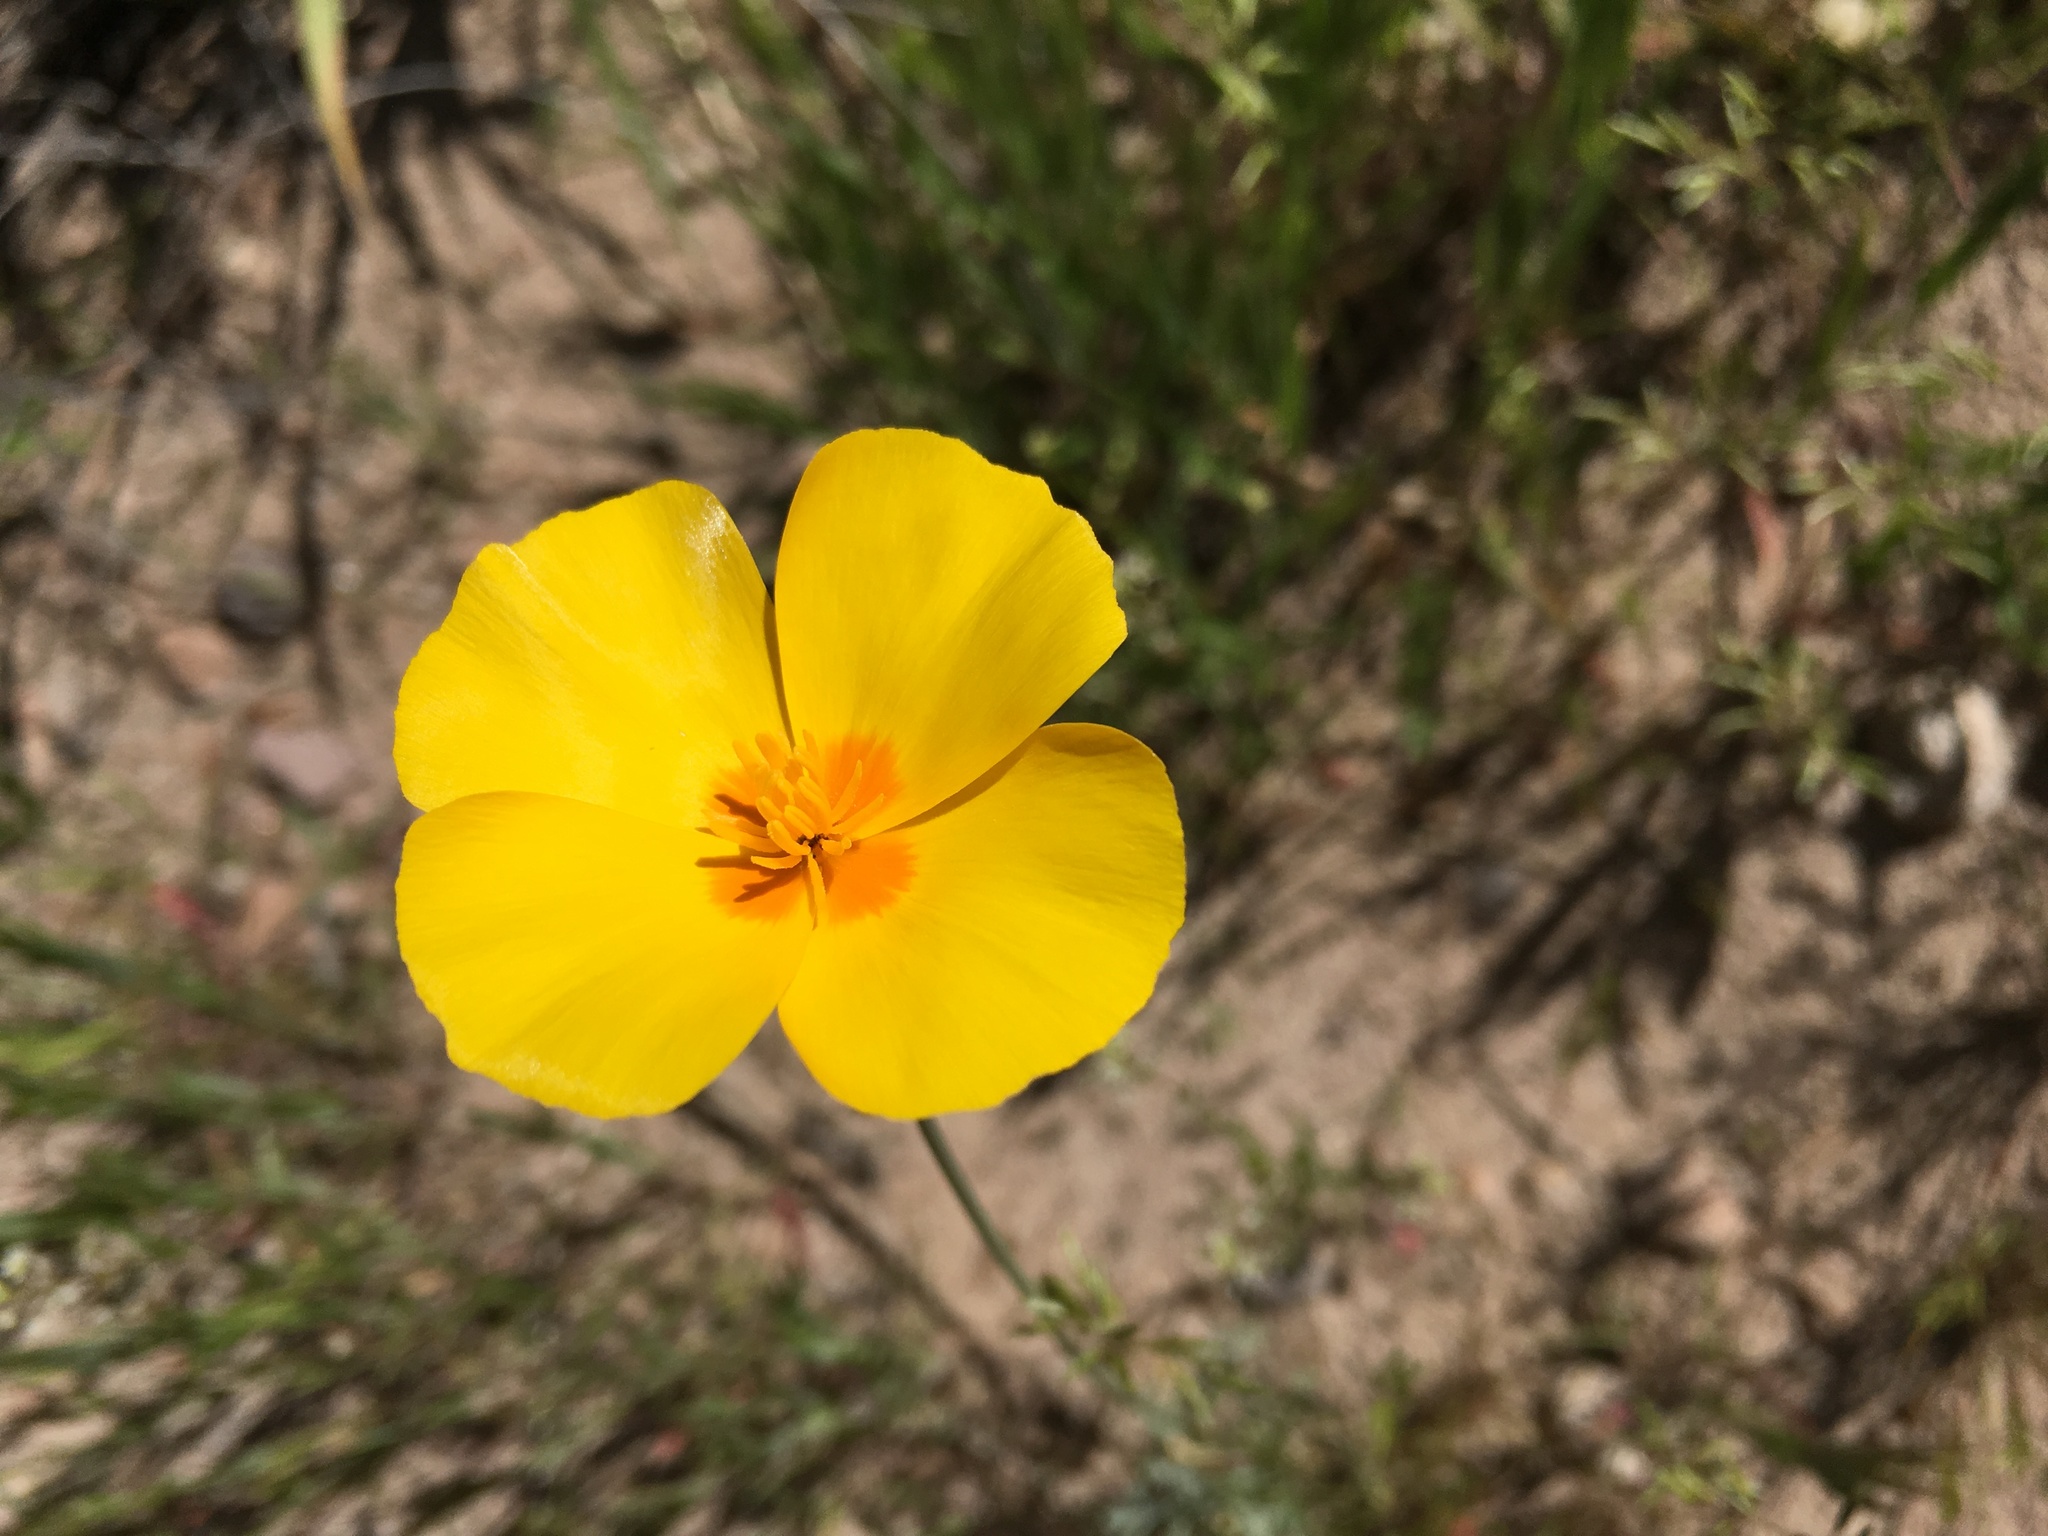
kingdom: Plantae
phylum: Tracheophyta
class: Magnoliopsida
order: Ranunculales
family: Papaveraceae
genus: Eschscholzia
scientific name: Eschscholzia californica
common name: California poppy
